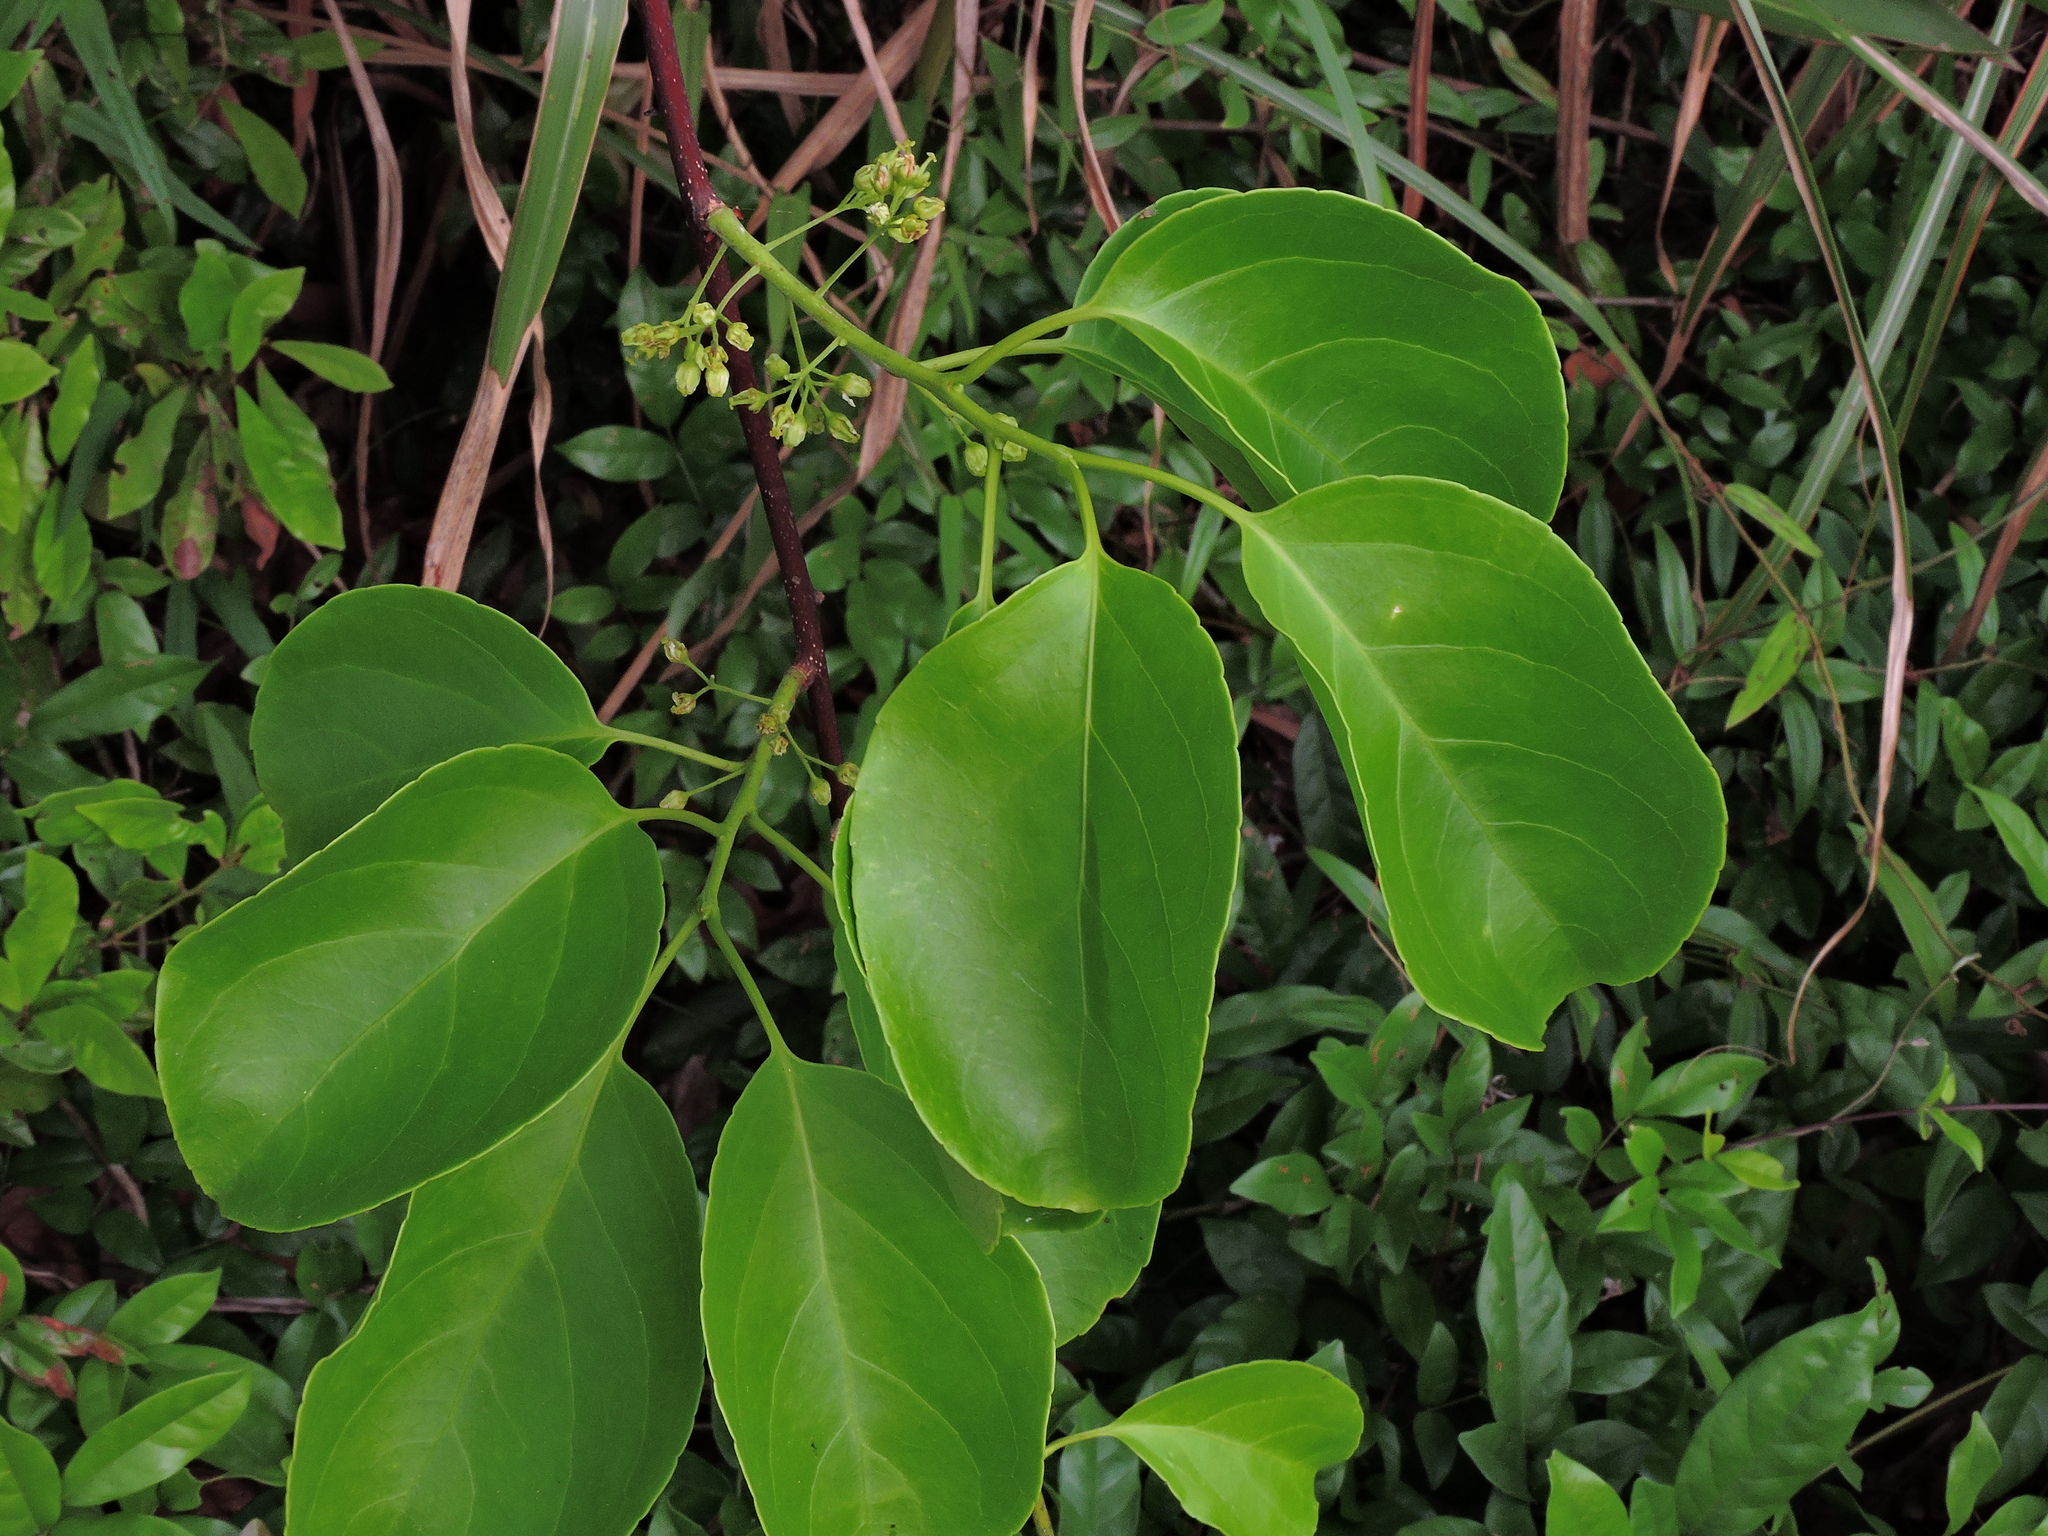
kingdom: Plantae
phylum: Tracheophyta
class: Magnoliopsida
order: Celastrales
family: Celastraceae
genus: Celastrus
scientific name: Celastrus kusanoi
